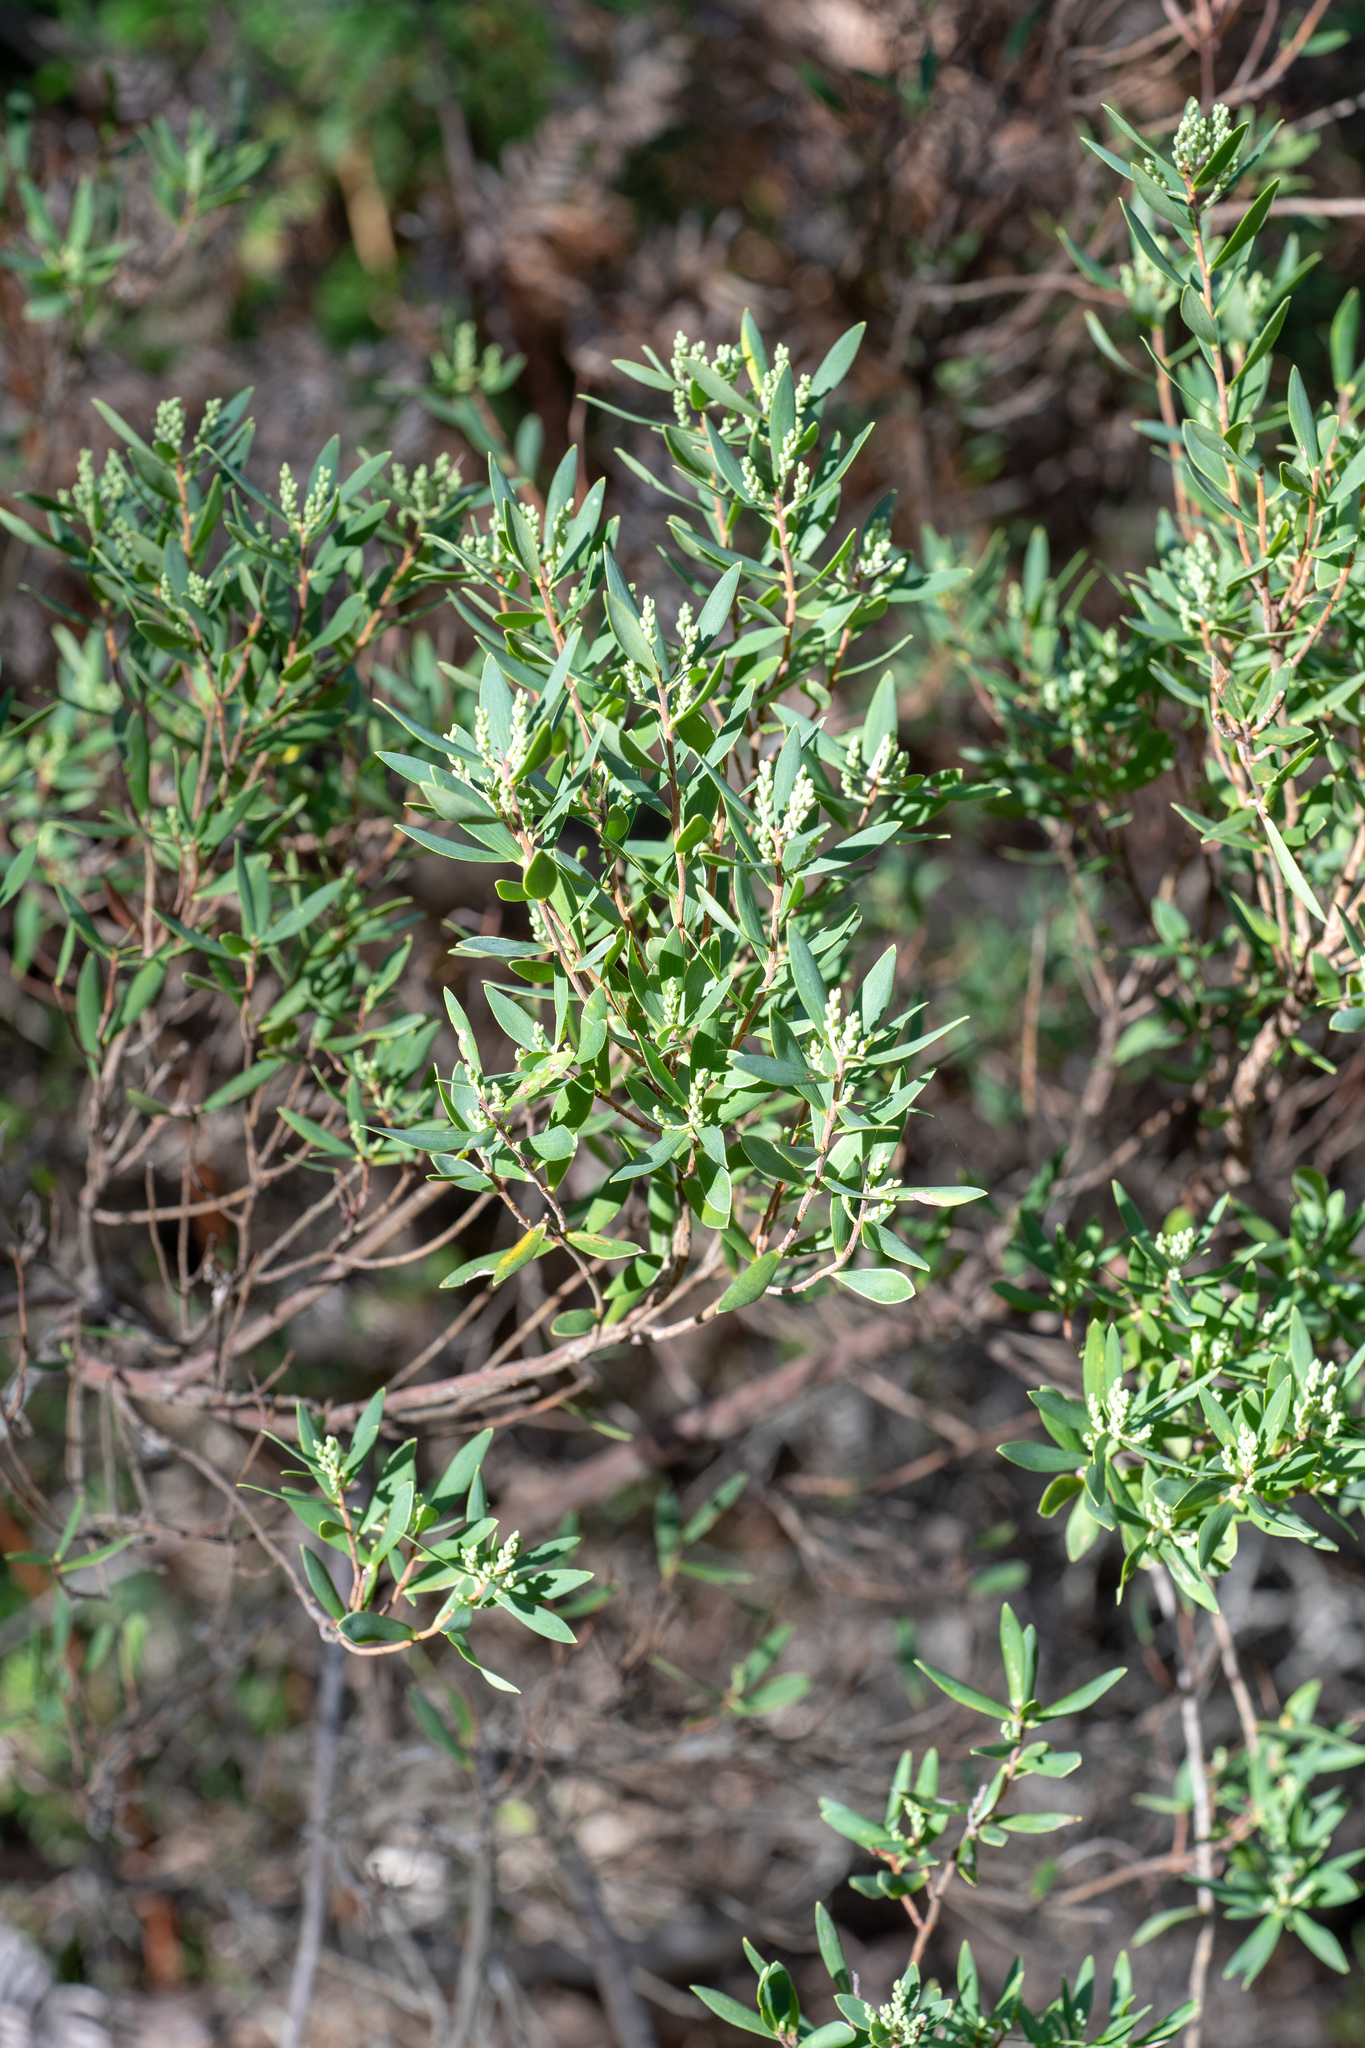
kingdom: Plantae
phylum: Tracheophyta
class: Magnoliopsida
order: Ericales
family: Ericaceae
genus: Leptecophylla
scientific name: Leptecophylla parvifolia
